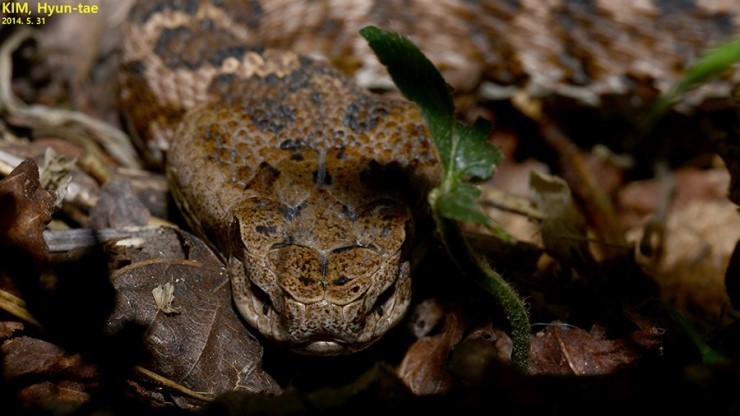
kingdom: Animalia
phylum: Chordata
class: Squamata
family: Viperidae
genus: Gloydius
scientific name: Gloydius intermedius
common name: Central asian pit viper
